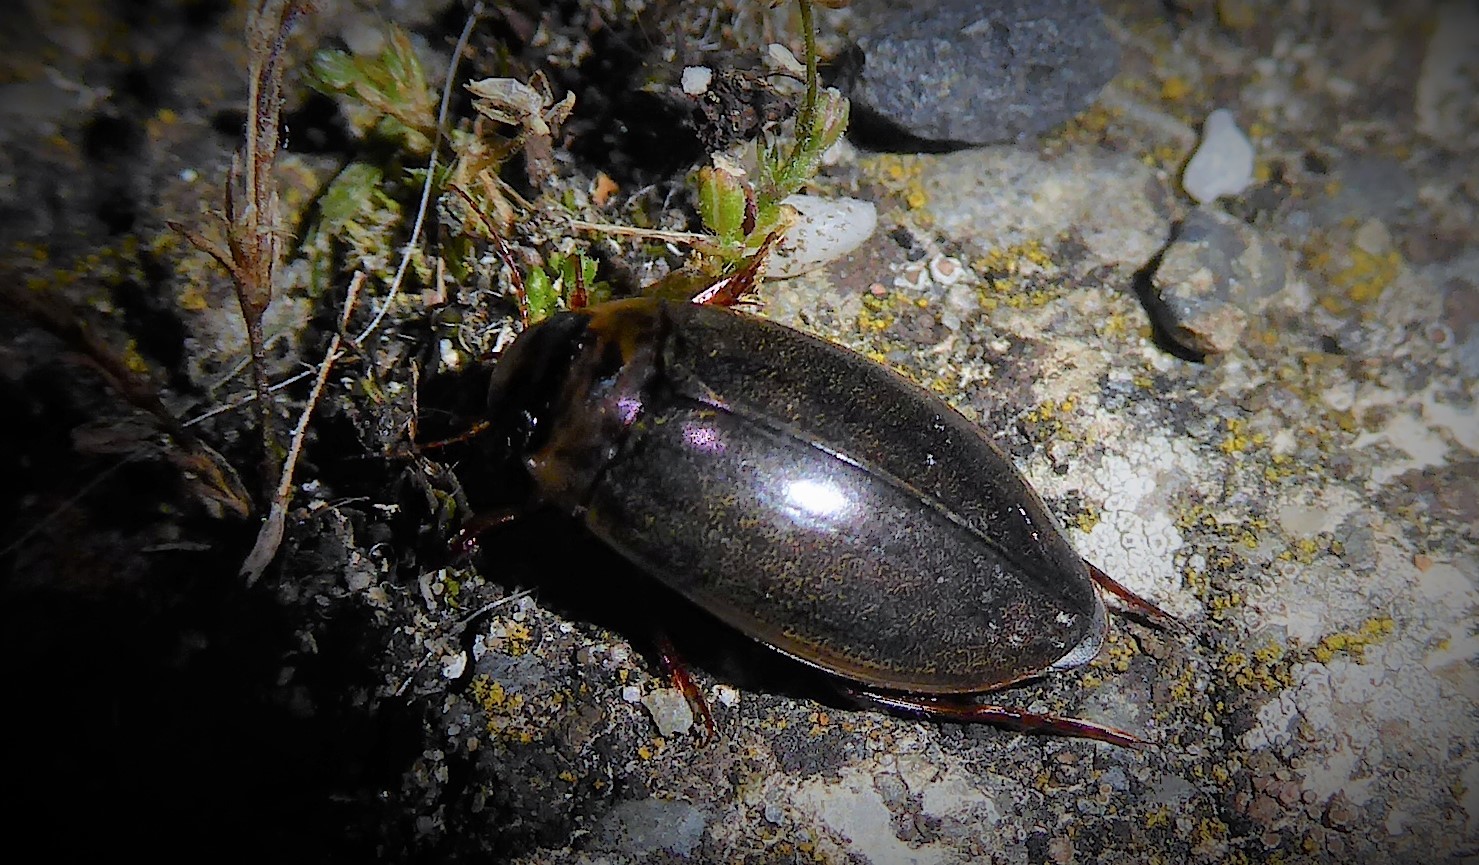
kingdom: Animalia
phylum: Arthropoda
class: Insecta
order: Coleoptera
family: Dytiscidae
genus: Rhantus
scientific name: Rhantus suturalis
